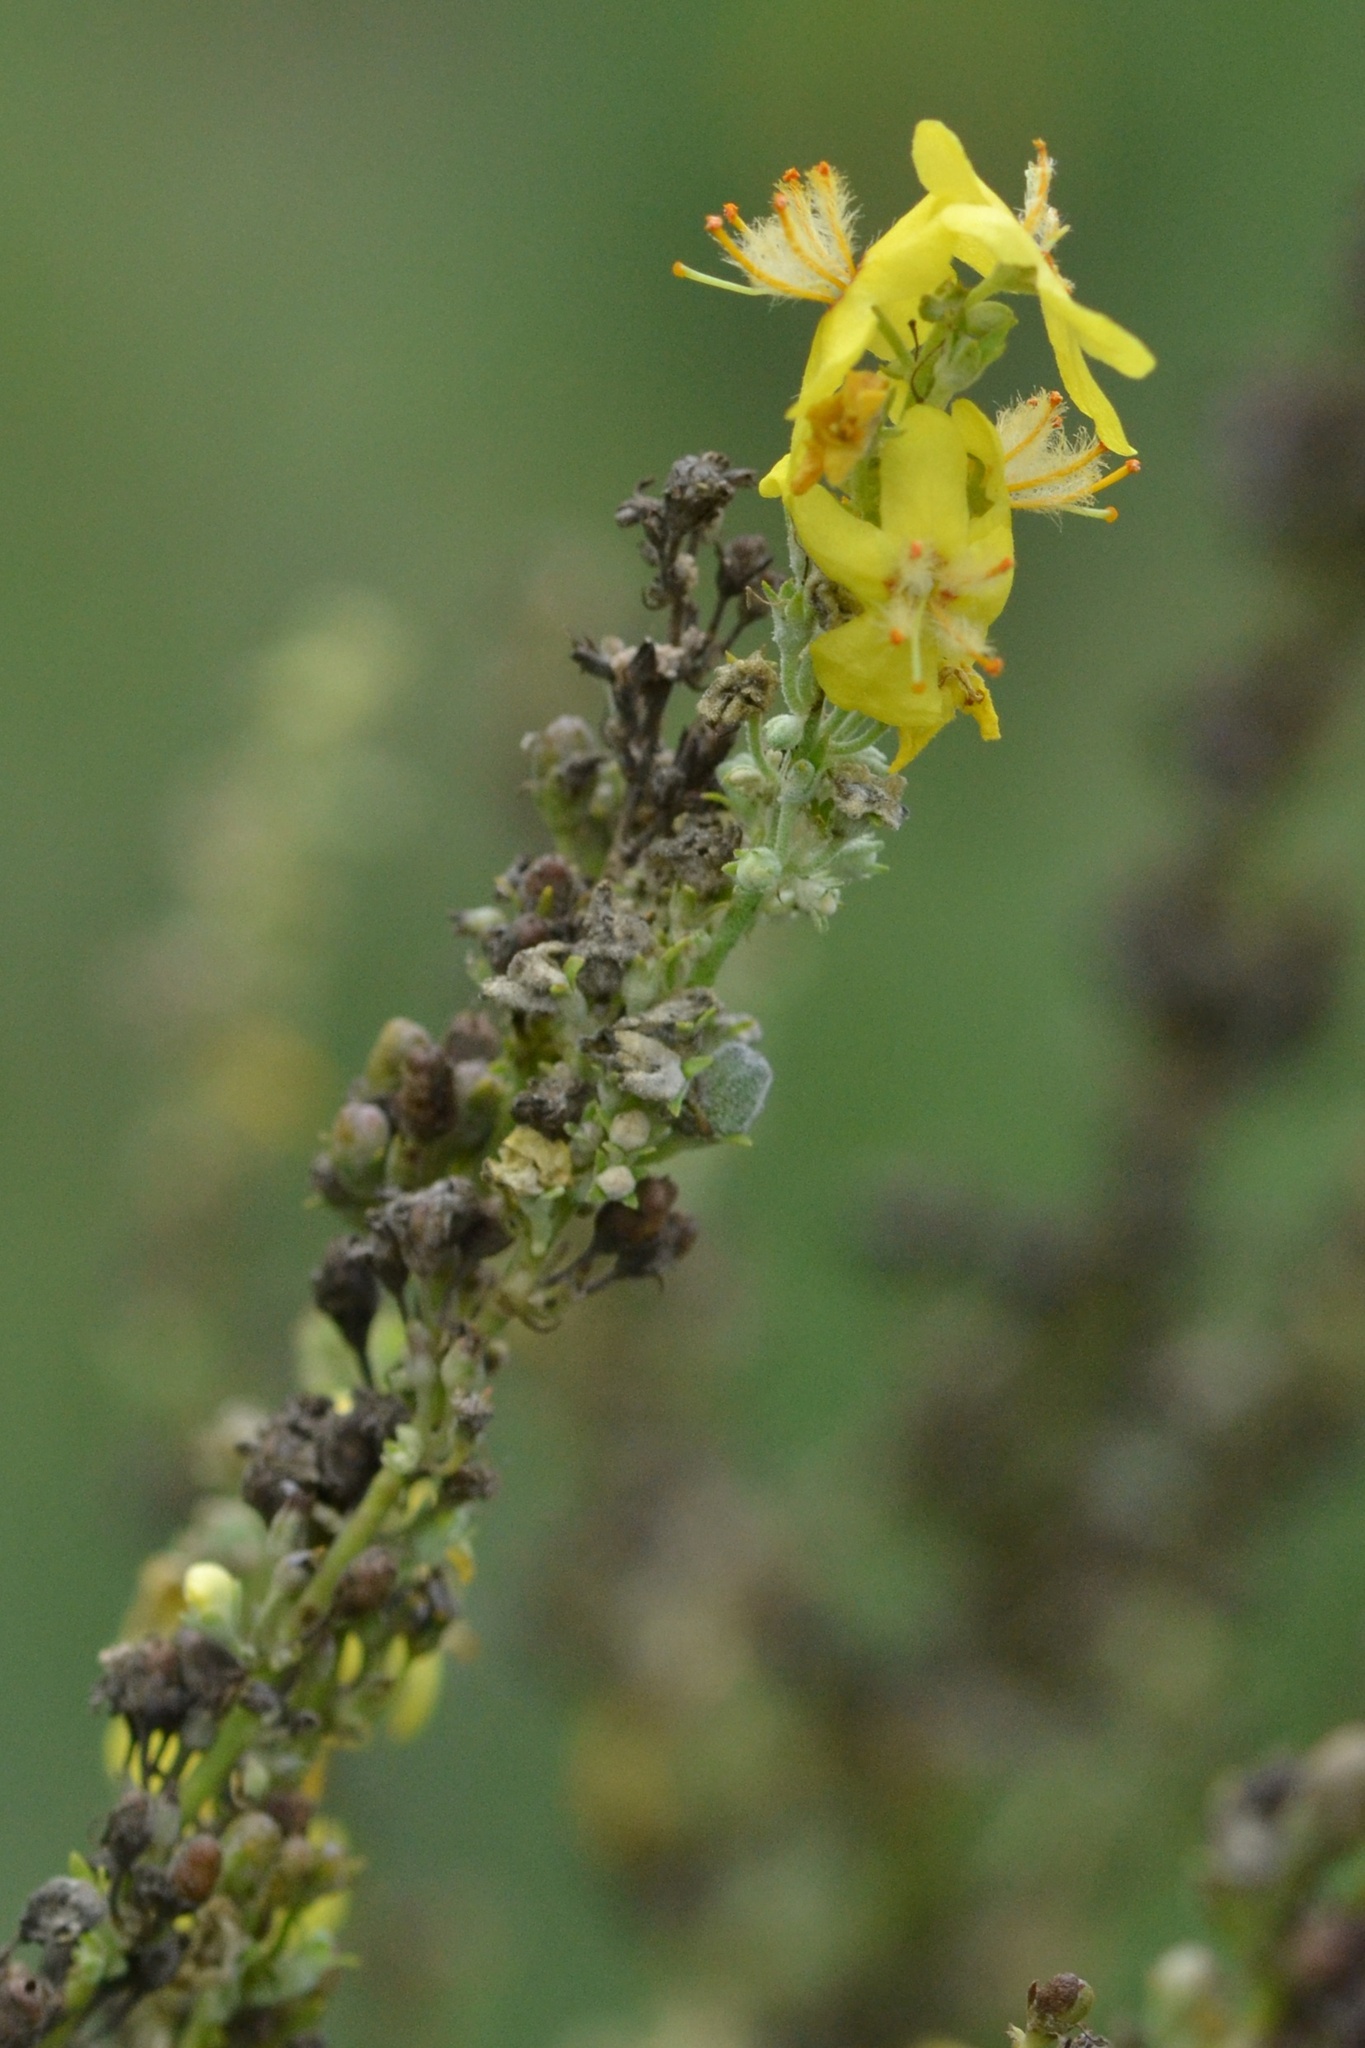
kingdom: Plantae
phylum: Tracheophyta
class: Magnoliopsida
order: Lamiales
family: Scrophulariaceae
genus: Verbascum
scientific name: Verbascum lychnitis
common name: White mullein
